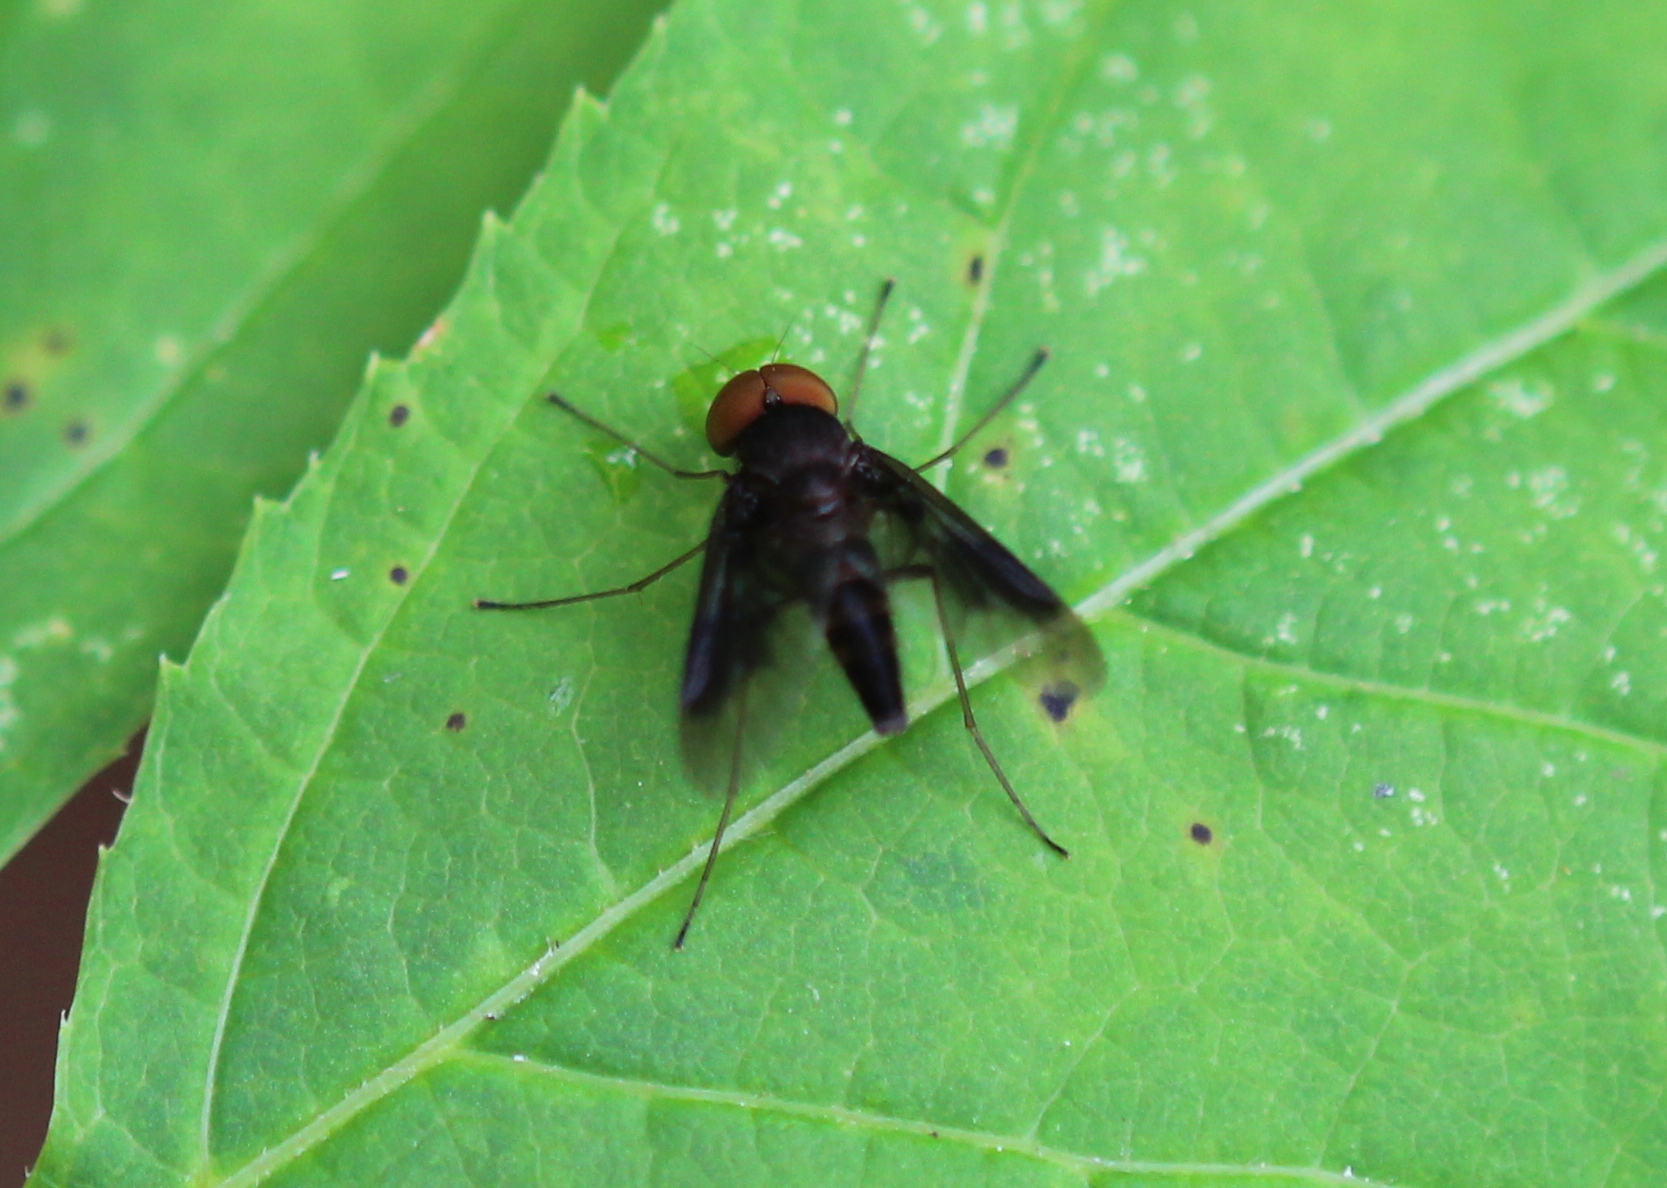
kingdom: Animalia
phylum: Arthropoda
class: Insecta
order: Diptera
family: Rhagionidae
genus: Chrysopilus
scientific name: Chrysopilus quadratus
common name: Quadrate snipe fly
